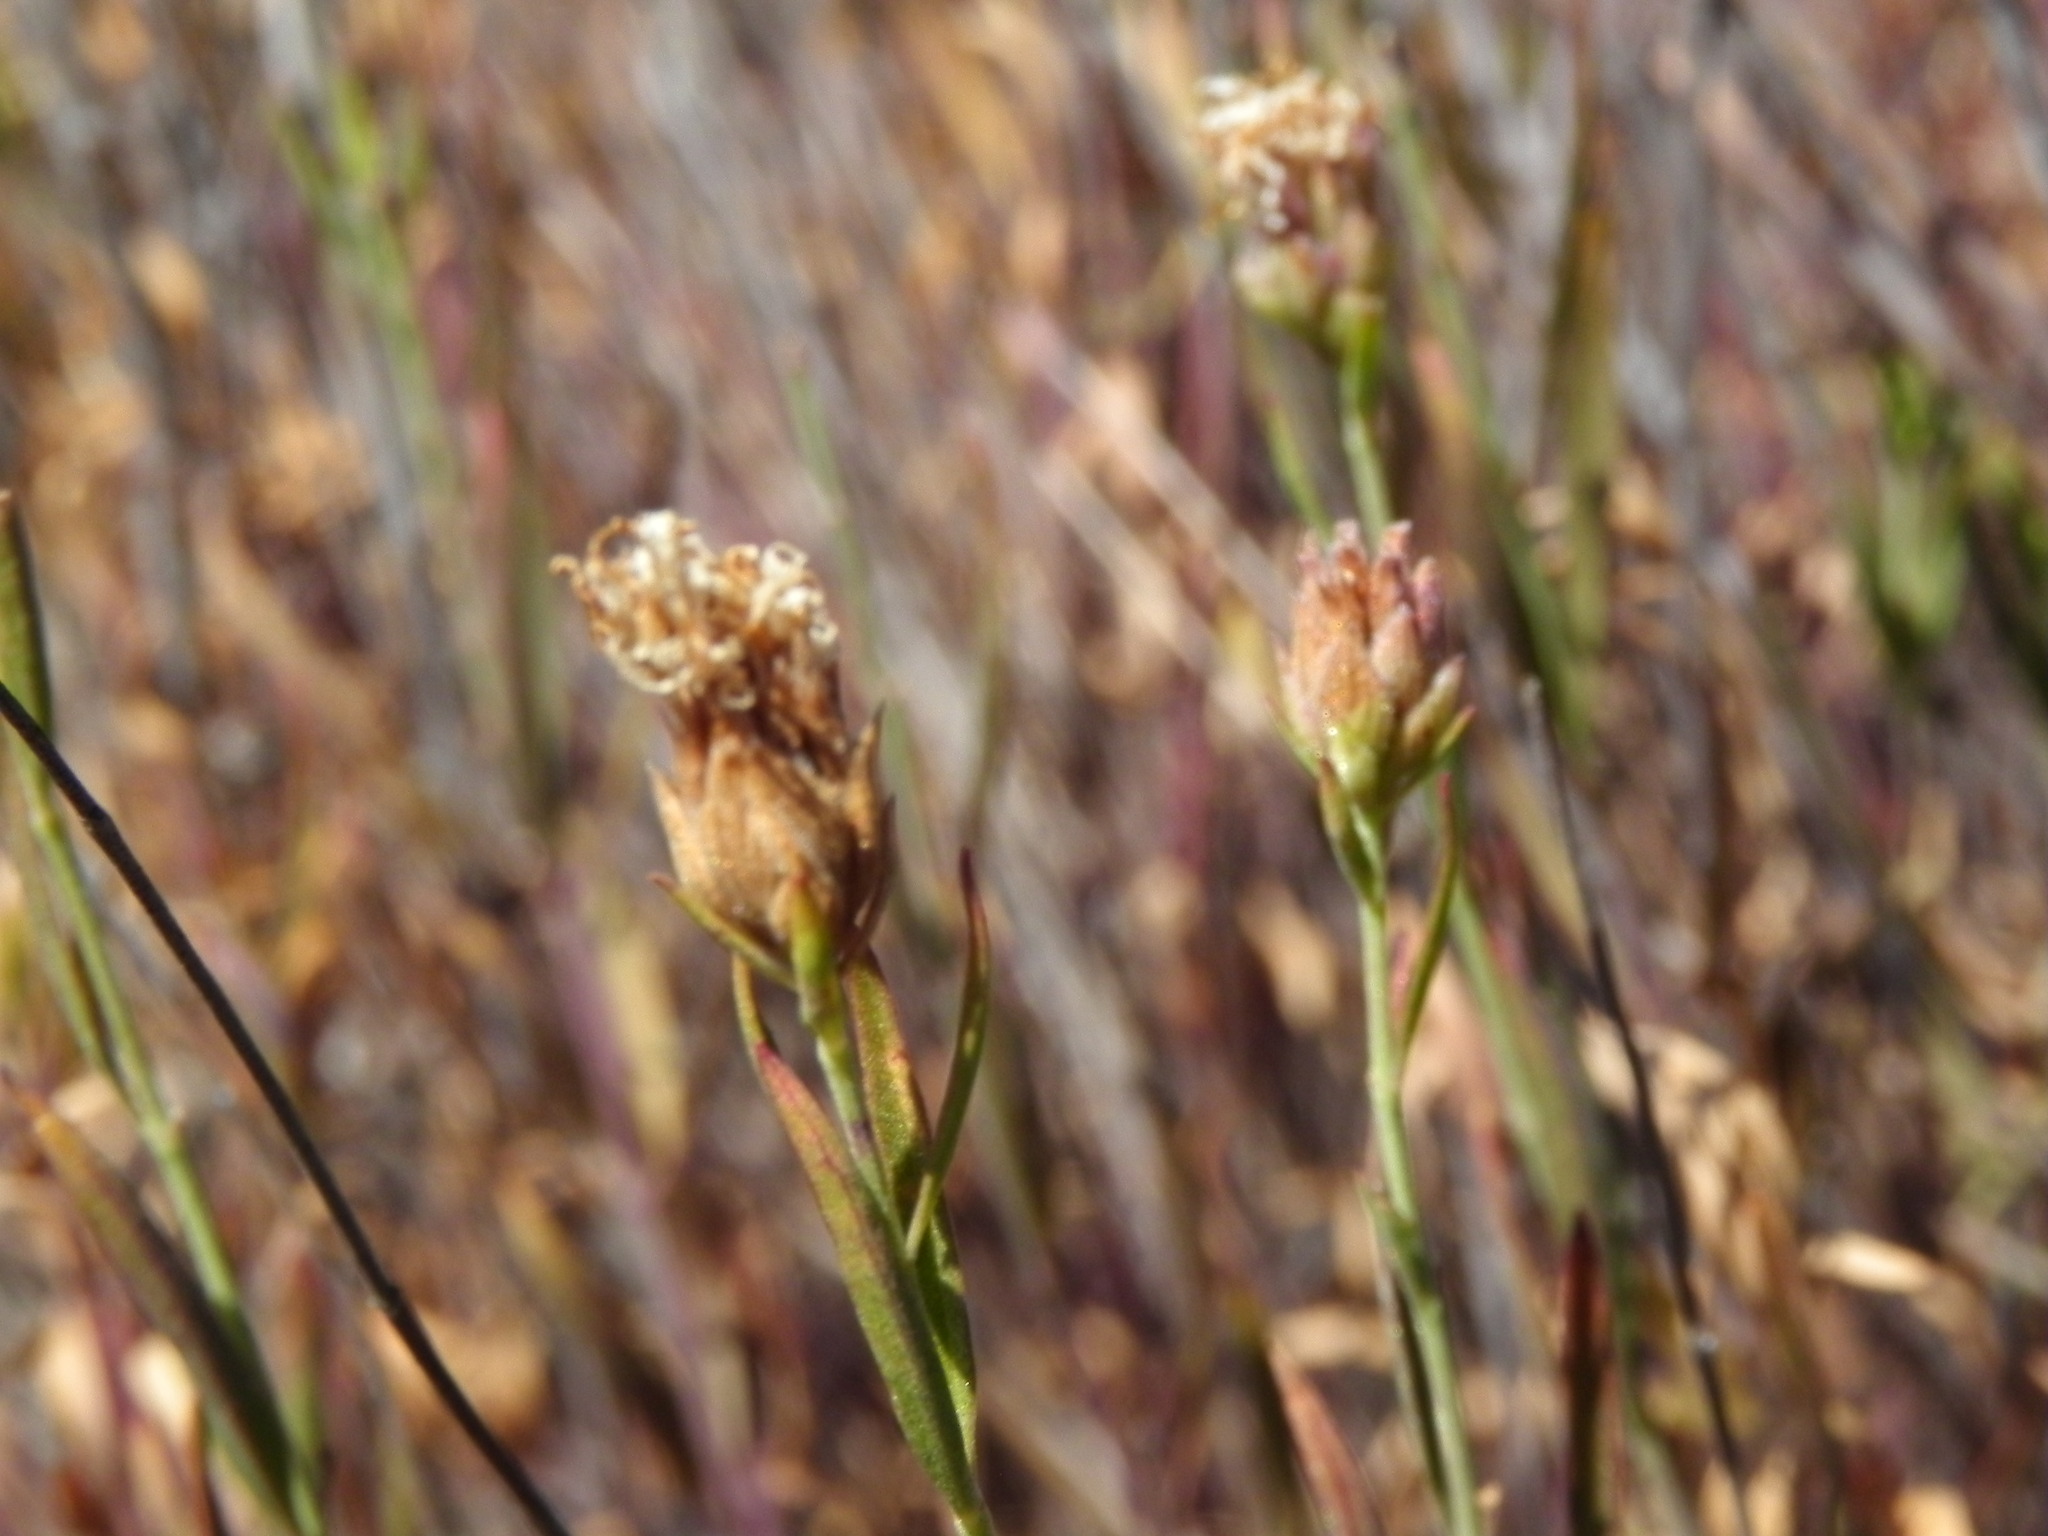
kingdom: Plantae
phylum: Tracheophyta
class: Magnoliopsida
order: Lamiales
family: Lamiaceae
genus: Monardella
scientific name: Monardella viminea
